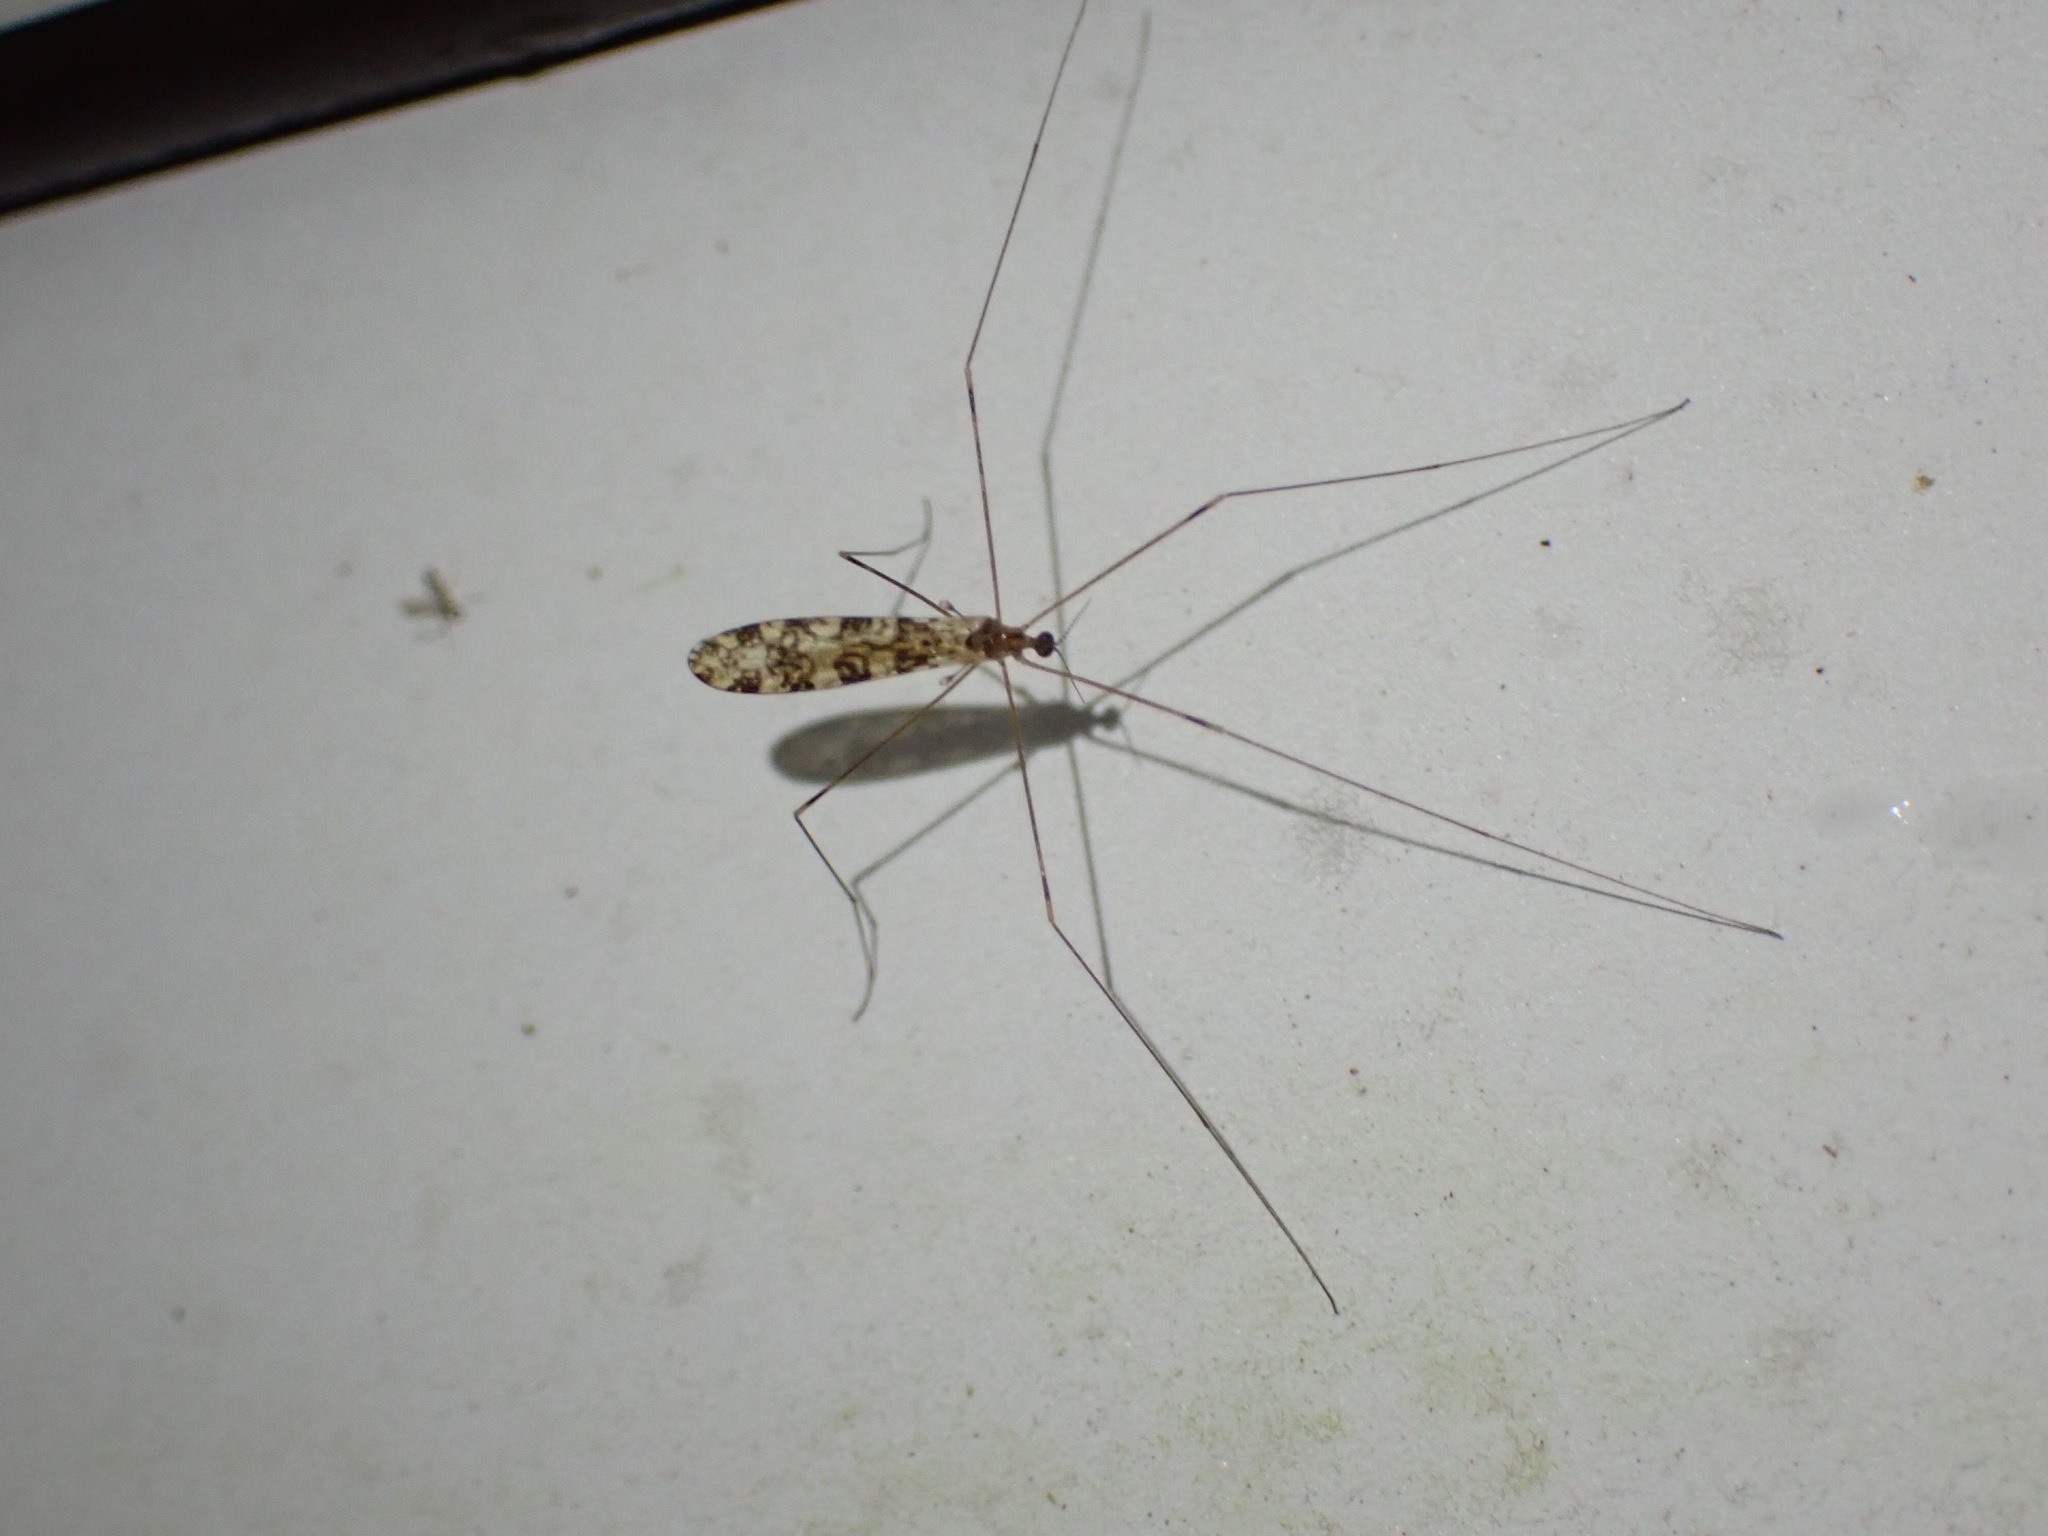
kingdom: Animalia
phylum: Arthropoda
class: Insecta
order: Diptera
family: Limoniidae
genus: Discobola
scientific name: Discobola annulata
